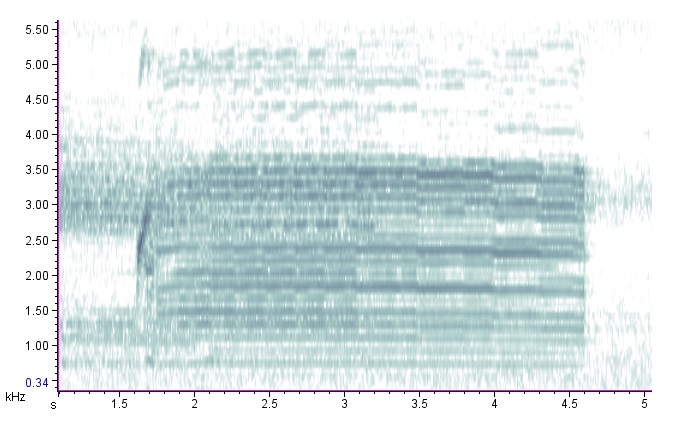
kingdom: Animalia
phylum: Chordata
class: Amphibia
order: Anura
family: Microhylidae
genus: Gastrophryne
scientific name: Gastrophryne carolinensis
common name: Eastern narrowmouth toad
